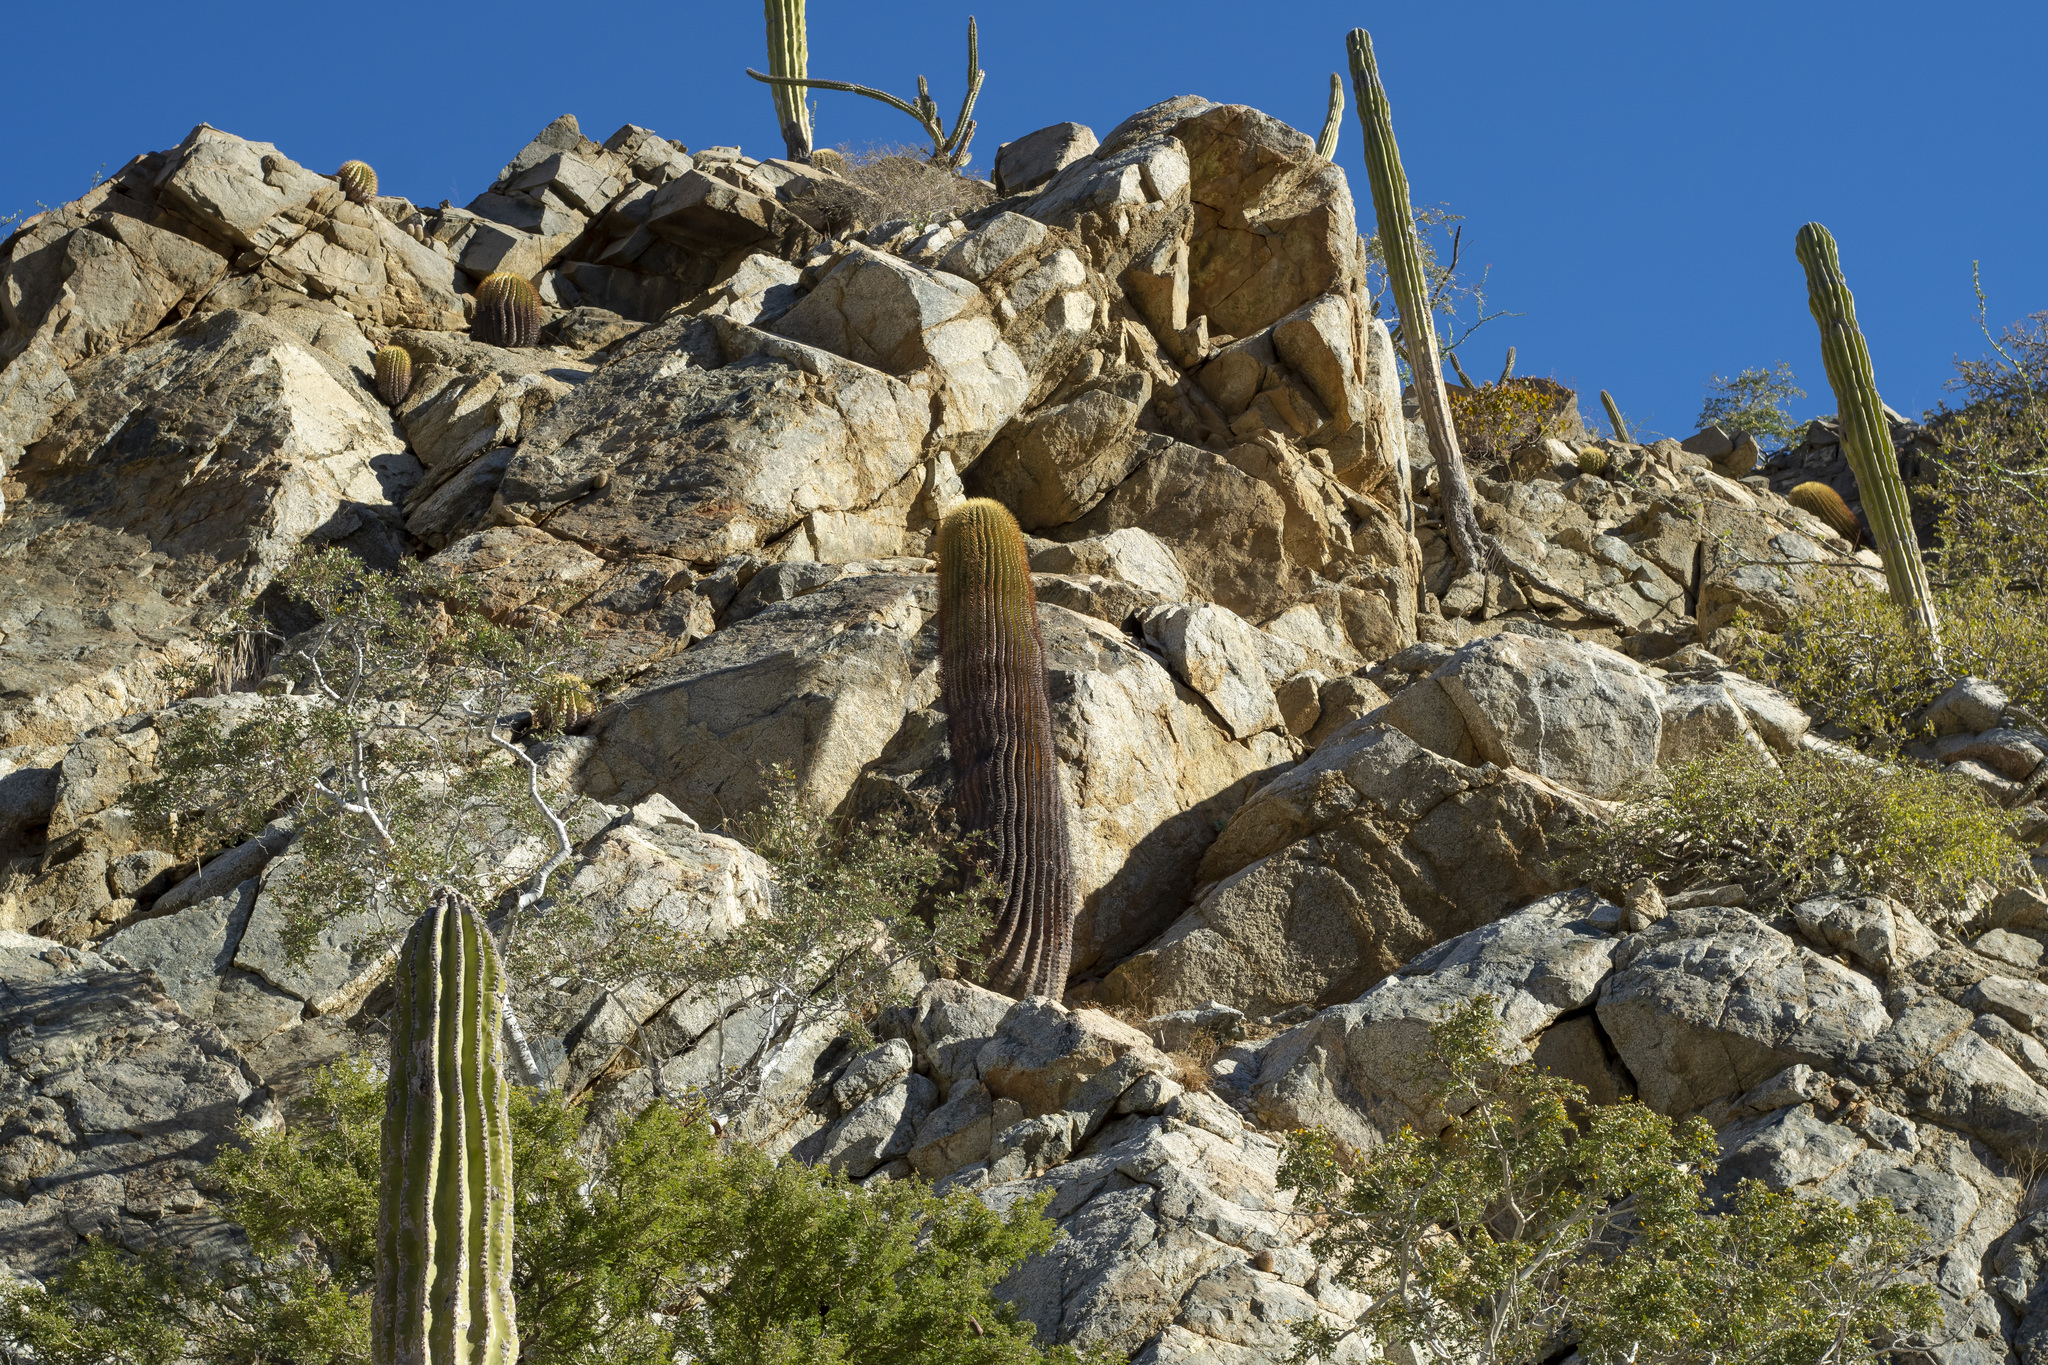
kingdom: Plantae
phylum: Tracheophyta
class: Magnoliopsida
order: Caryophyllales
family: Cactaceae
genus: Ferocactus
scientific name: Ferocactus diguetii
